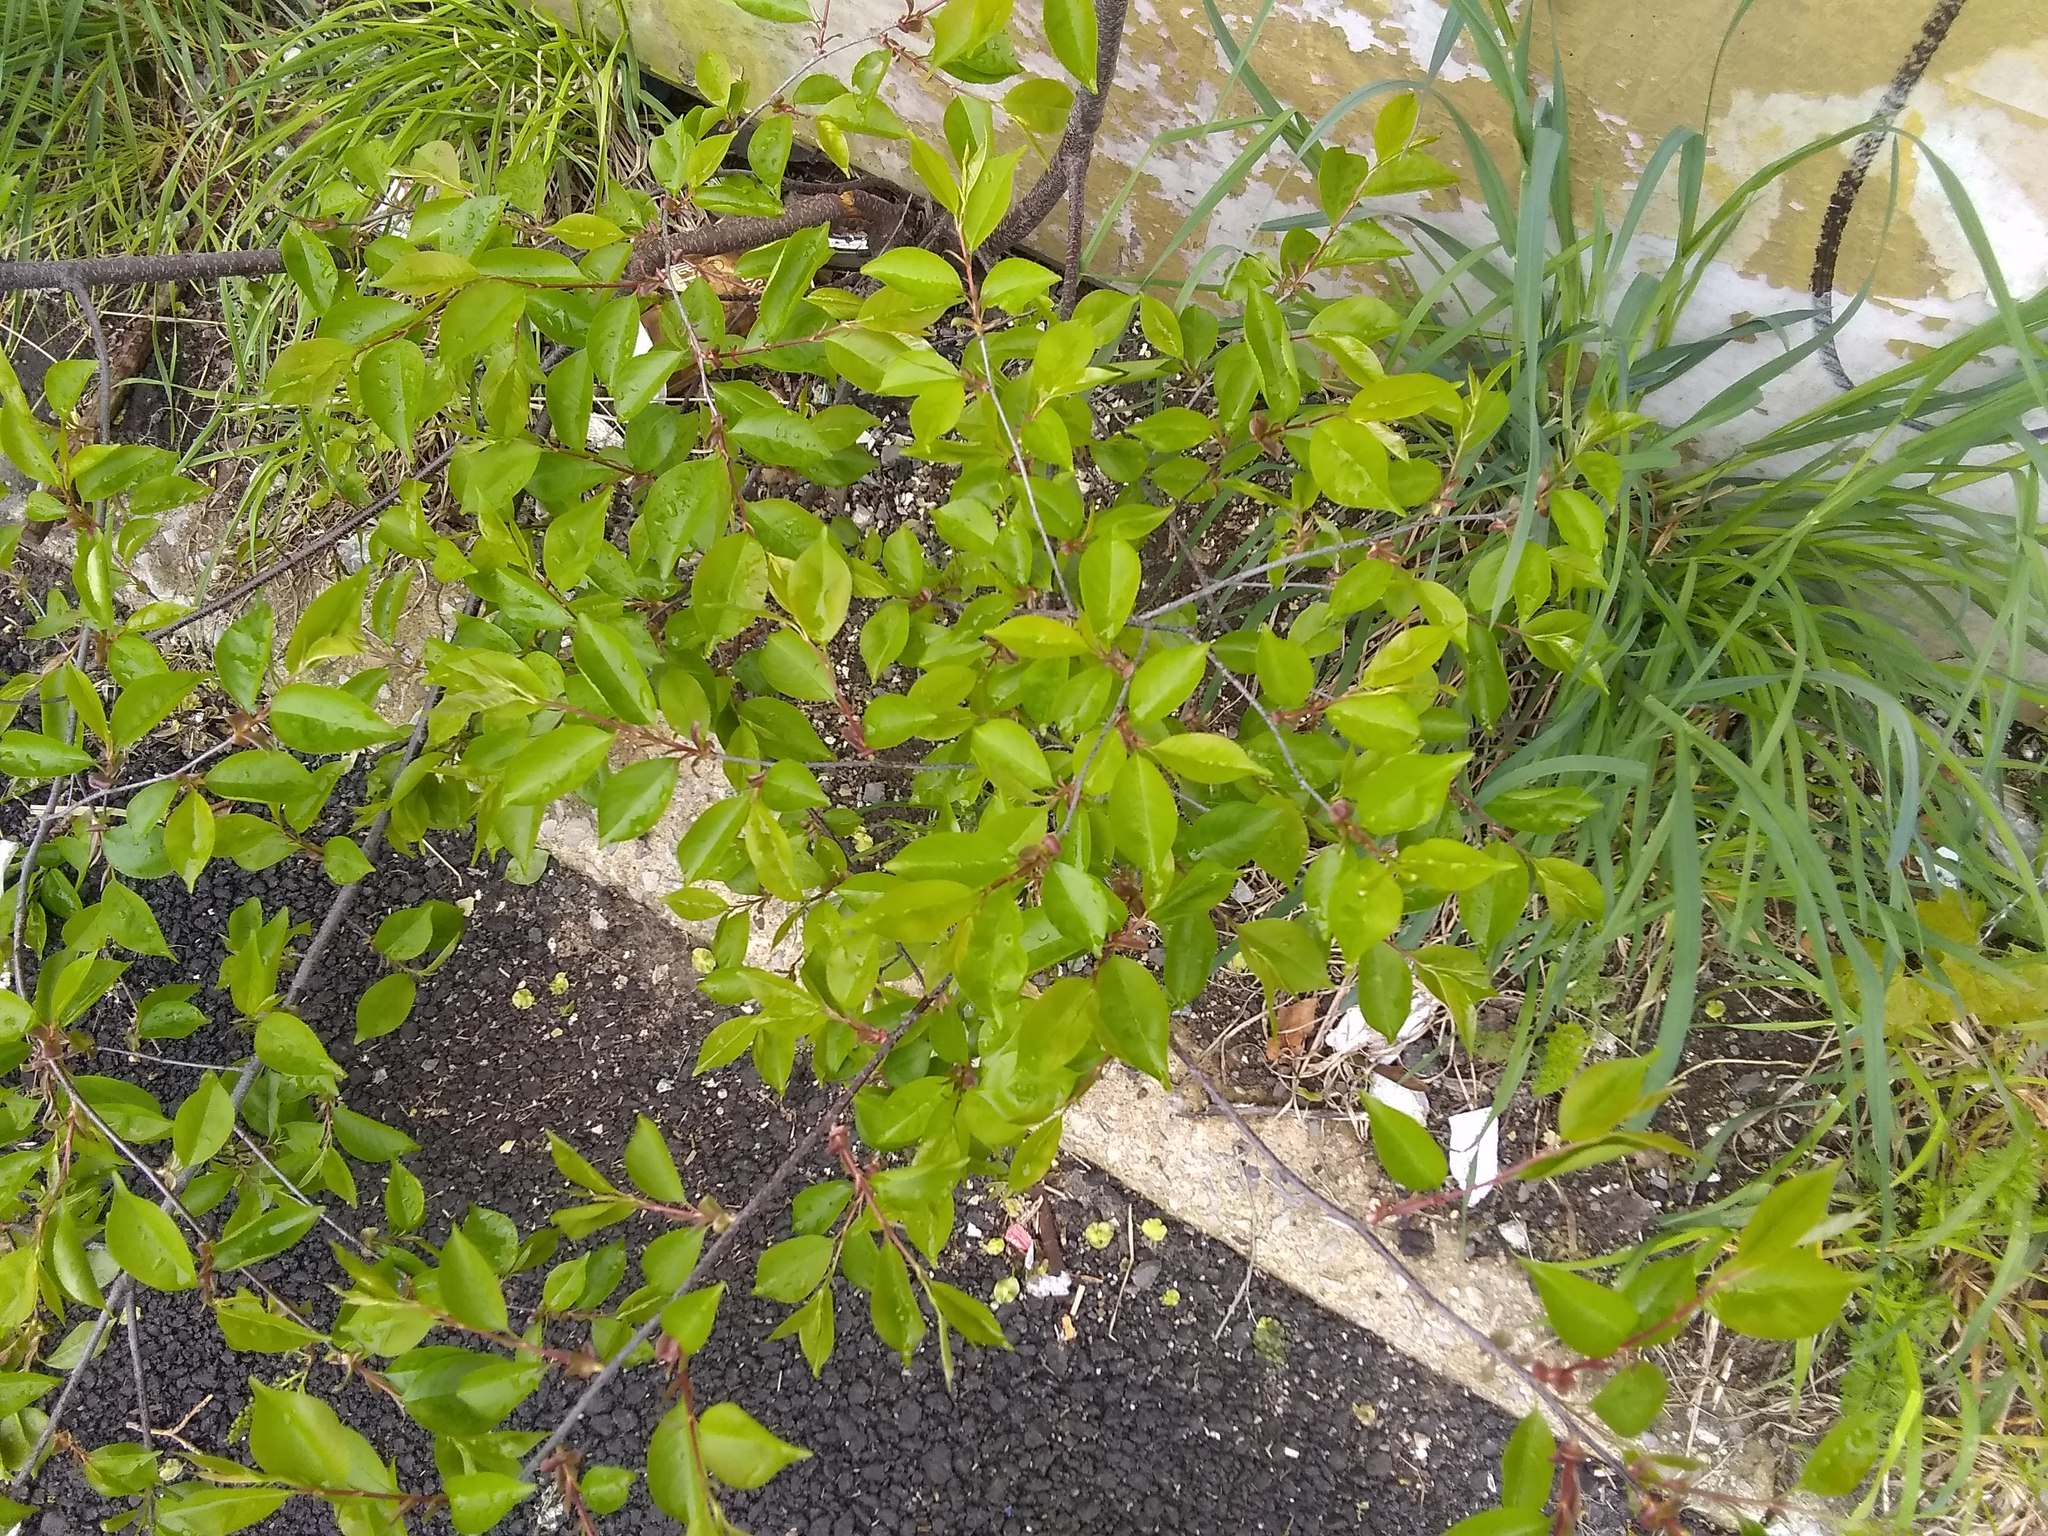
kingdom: Plantae
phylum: Tracheophyta
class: Magnoliopsida
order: Rosales
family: Rosaceae
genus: Prunus
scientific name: Prunus serotina
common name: Black cherry
